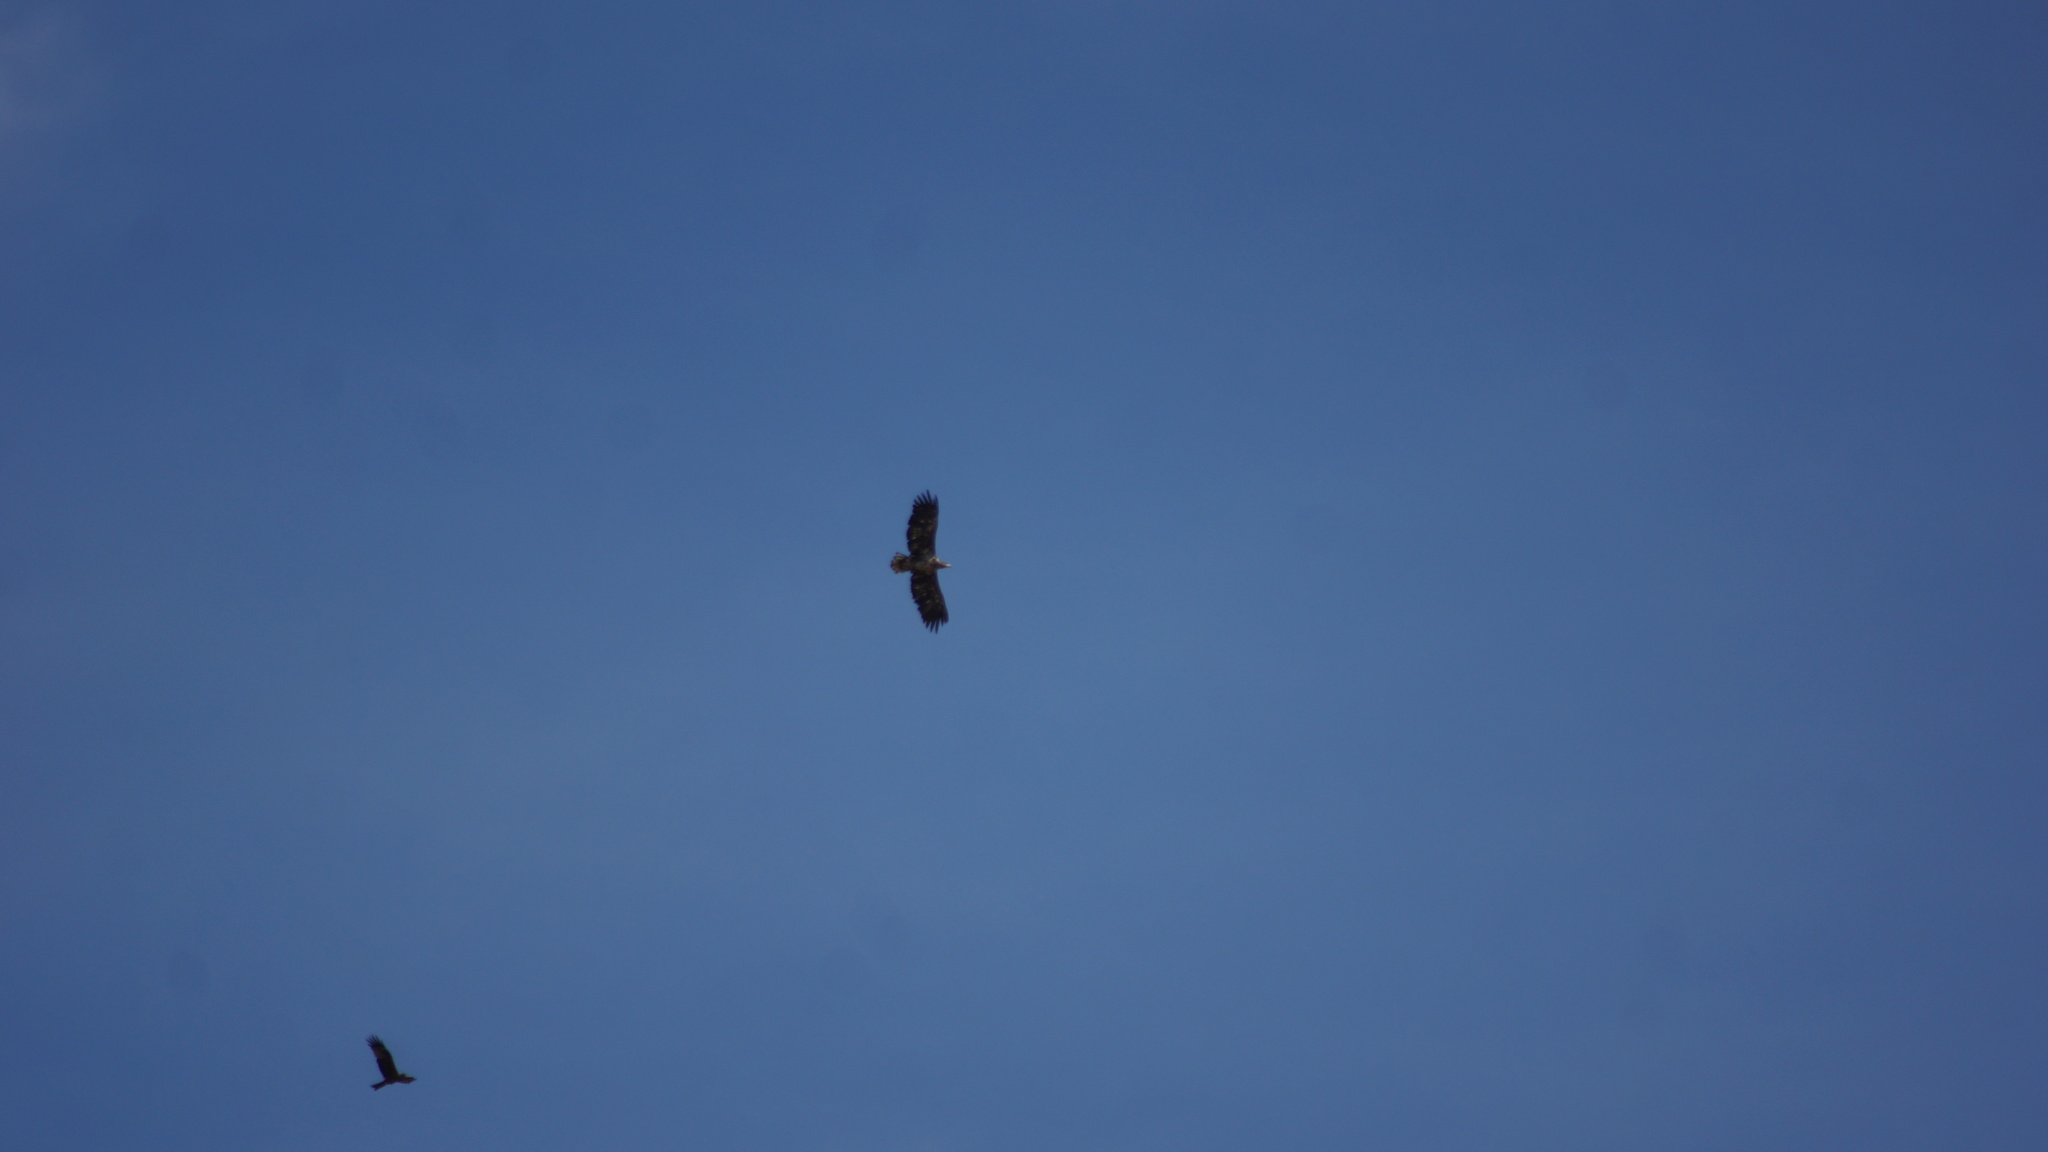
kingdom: Animalia
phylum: Chordata
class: Aves
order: Accipitriformes
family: Accipitridae
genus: Haliaeetus
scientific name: Haliaeetus albicilla
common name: White-tailed eagle
